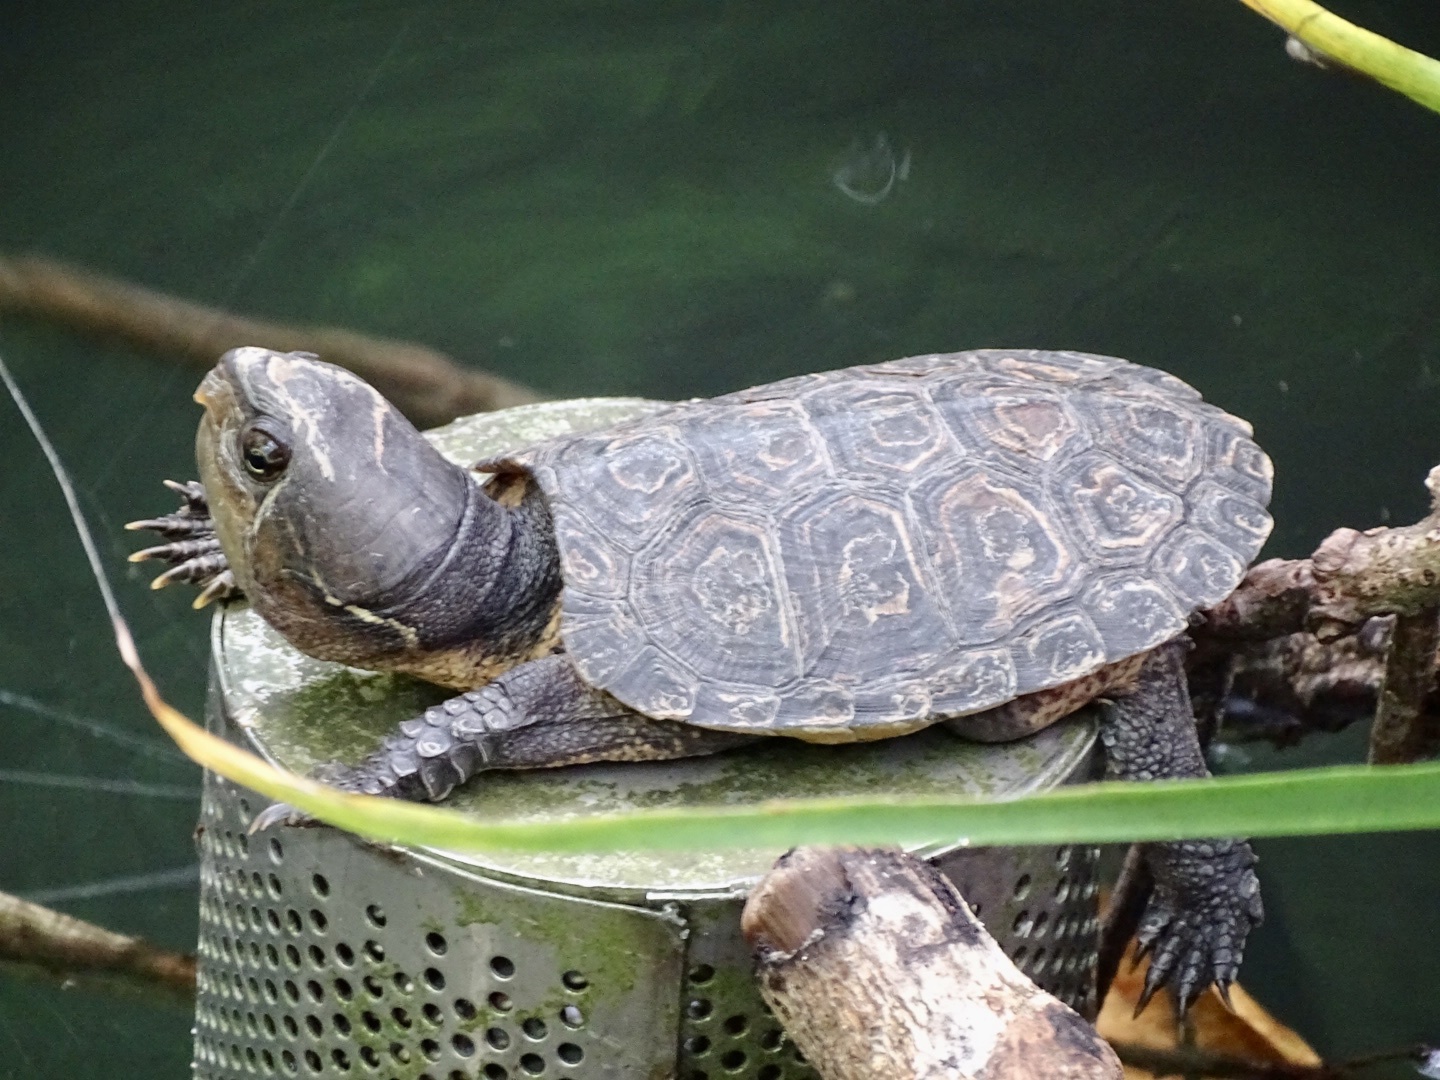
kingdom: Animalia
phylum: Chordata
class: Testudines
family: Platysternidae
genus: Platysternon
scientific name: Platysternon megacephalum
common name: Big-headed turtle
